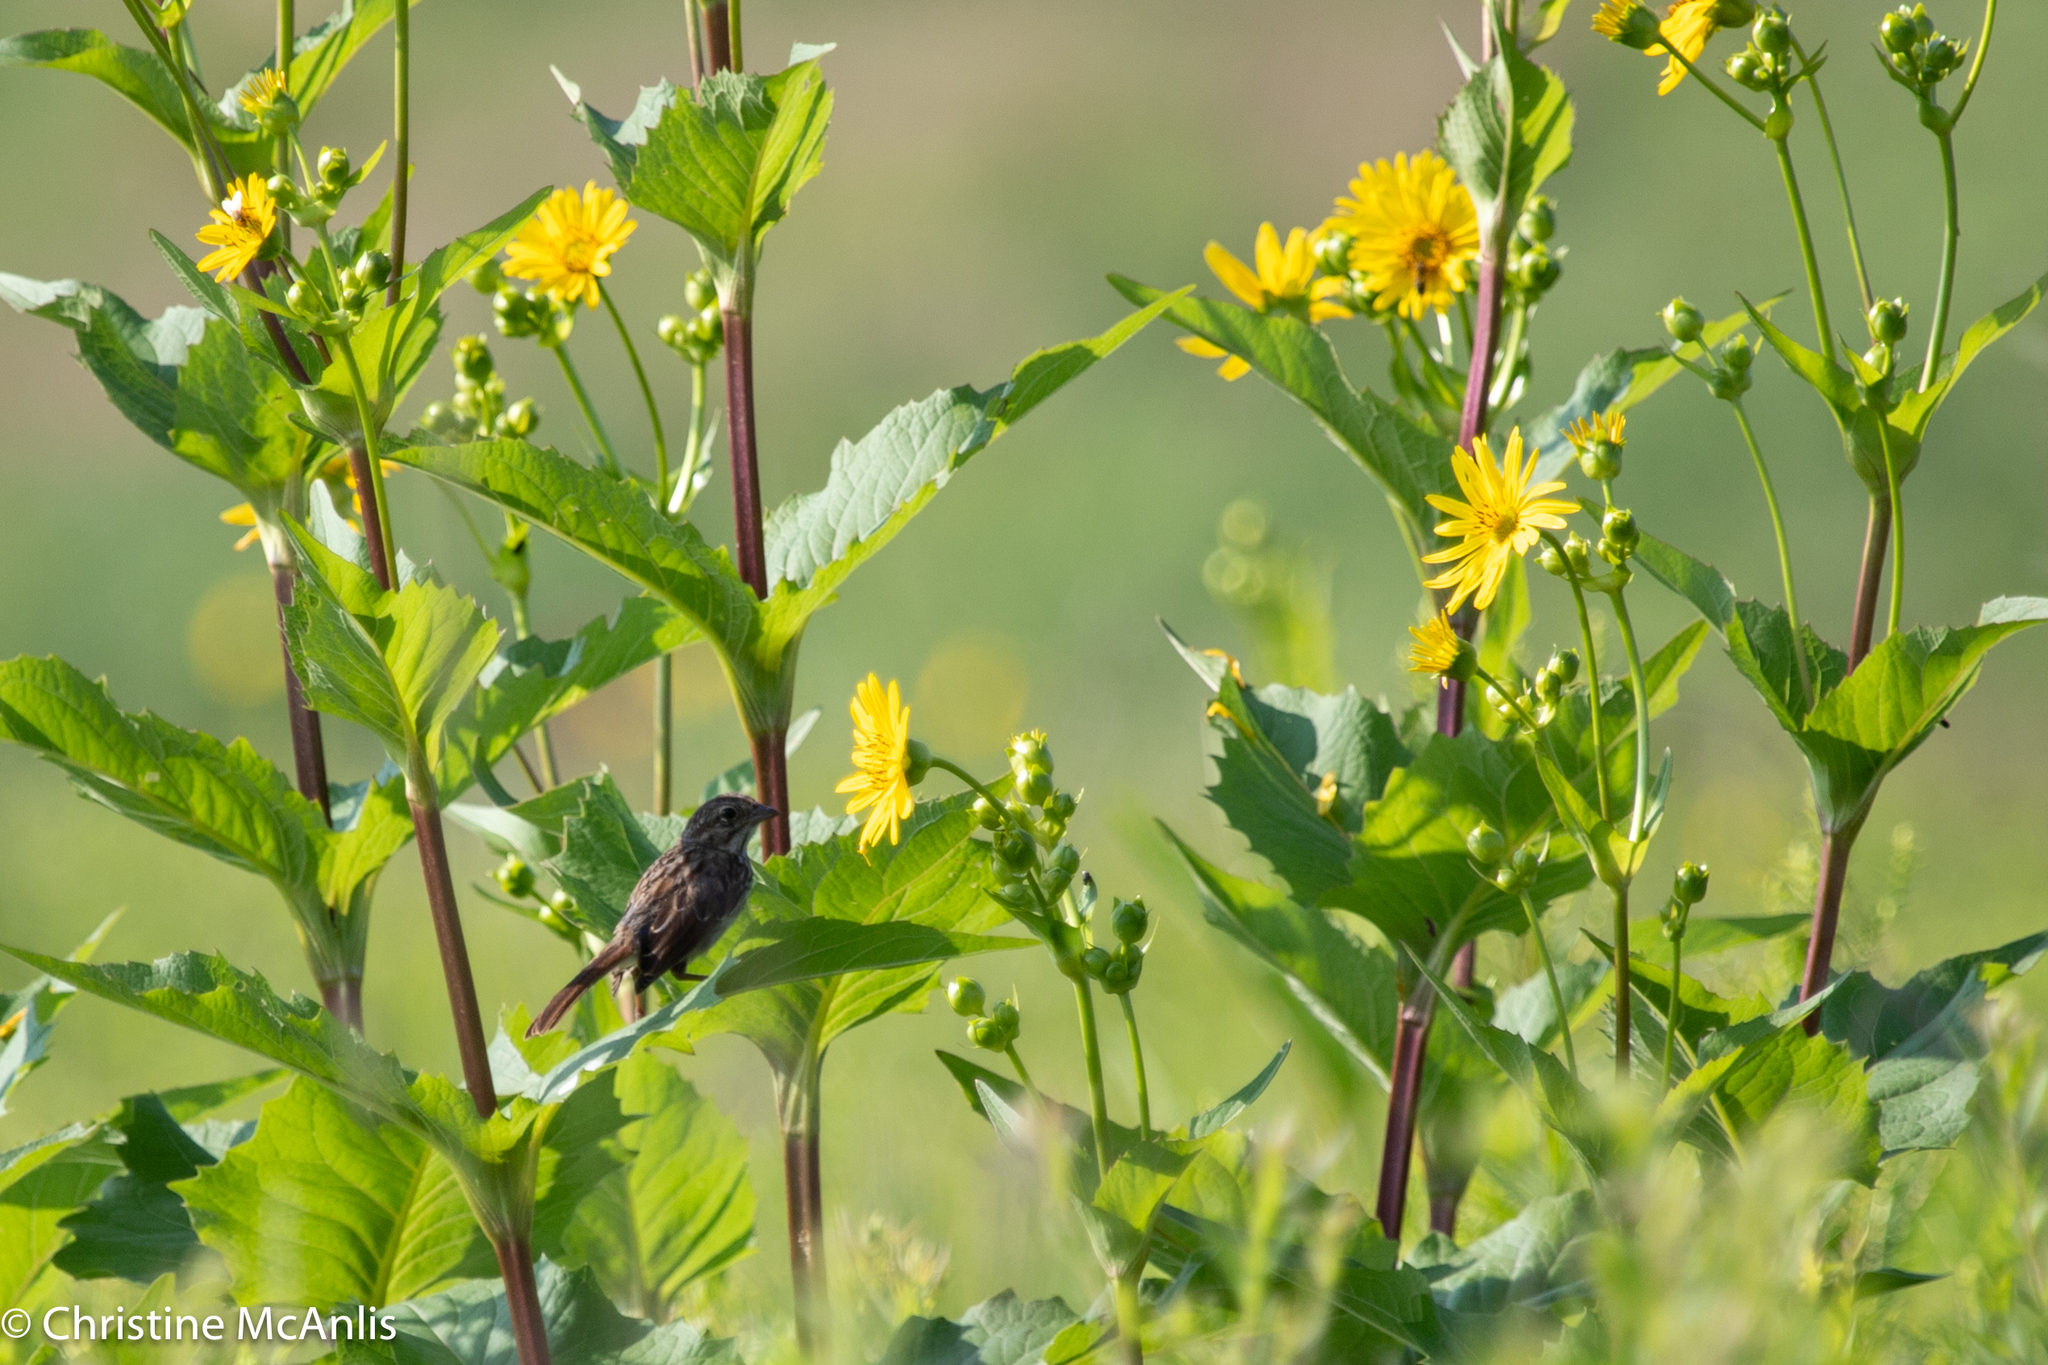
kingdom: Animalia
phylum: Chordata
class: Aves
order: Passeriformes
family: Passerellidae
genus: Melospiza
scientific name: Melospiza melodia
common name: Song sparrow
